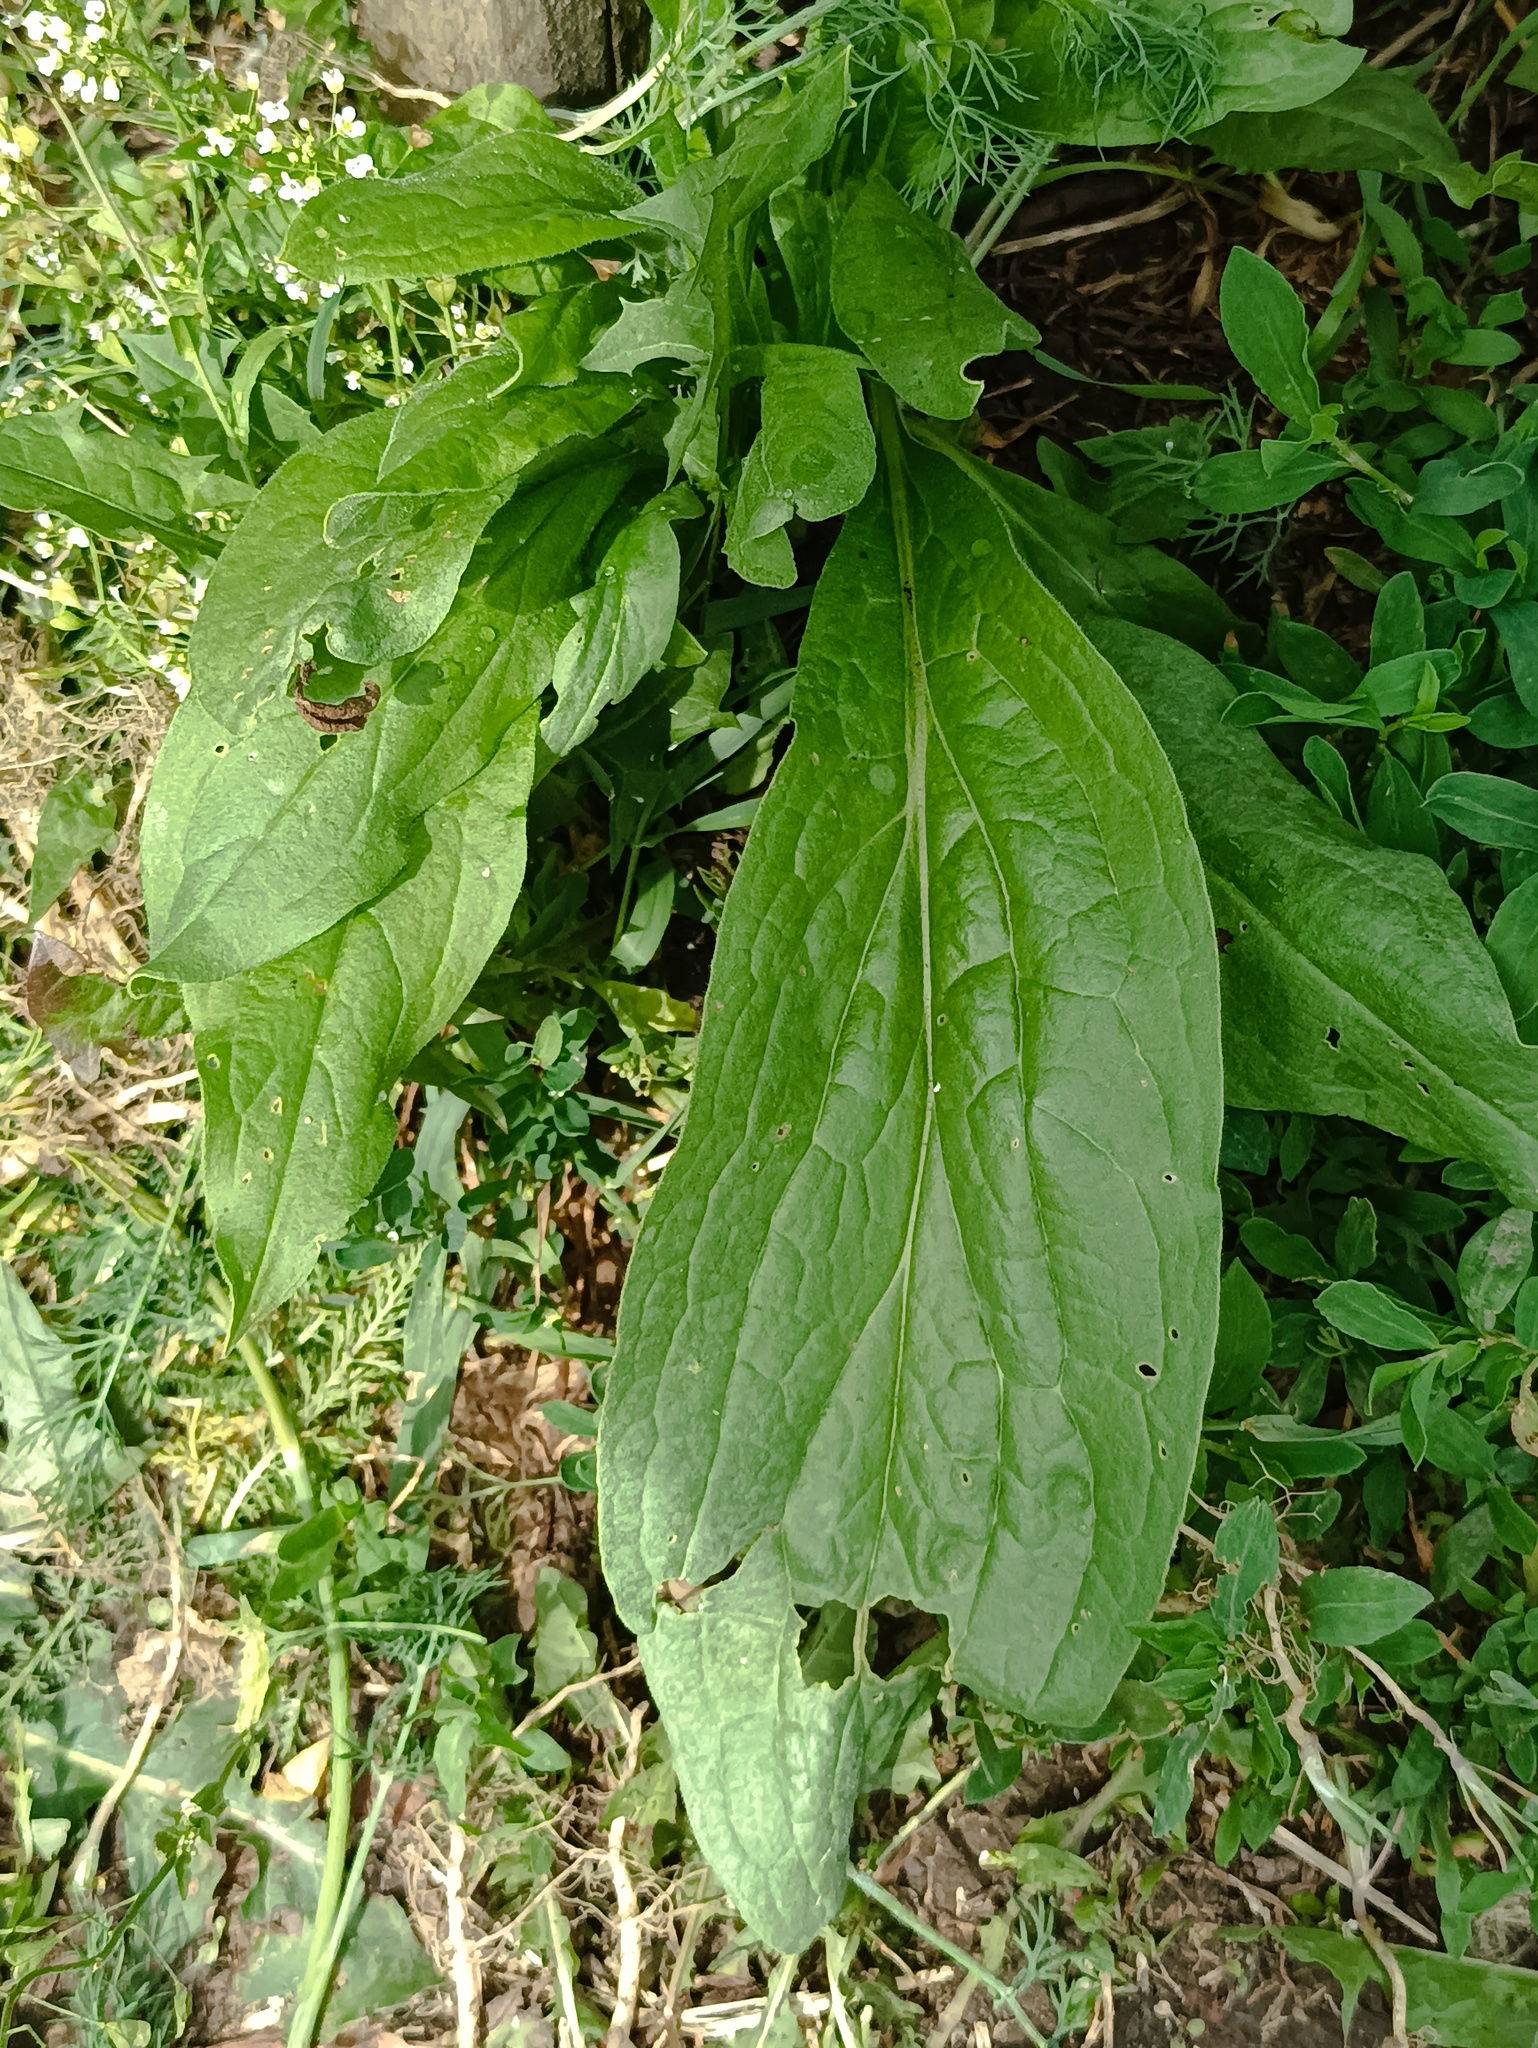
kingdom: Plantae
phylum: Tracheophyta
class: Magnoliopsida
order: Boraginales
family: Boraginaceae
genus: Cynoglossum
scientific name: Cynoglossum officinale
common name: Hound's-tongue
